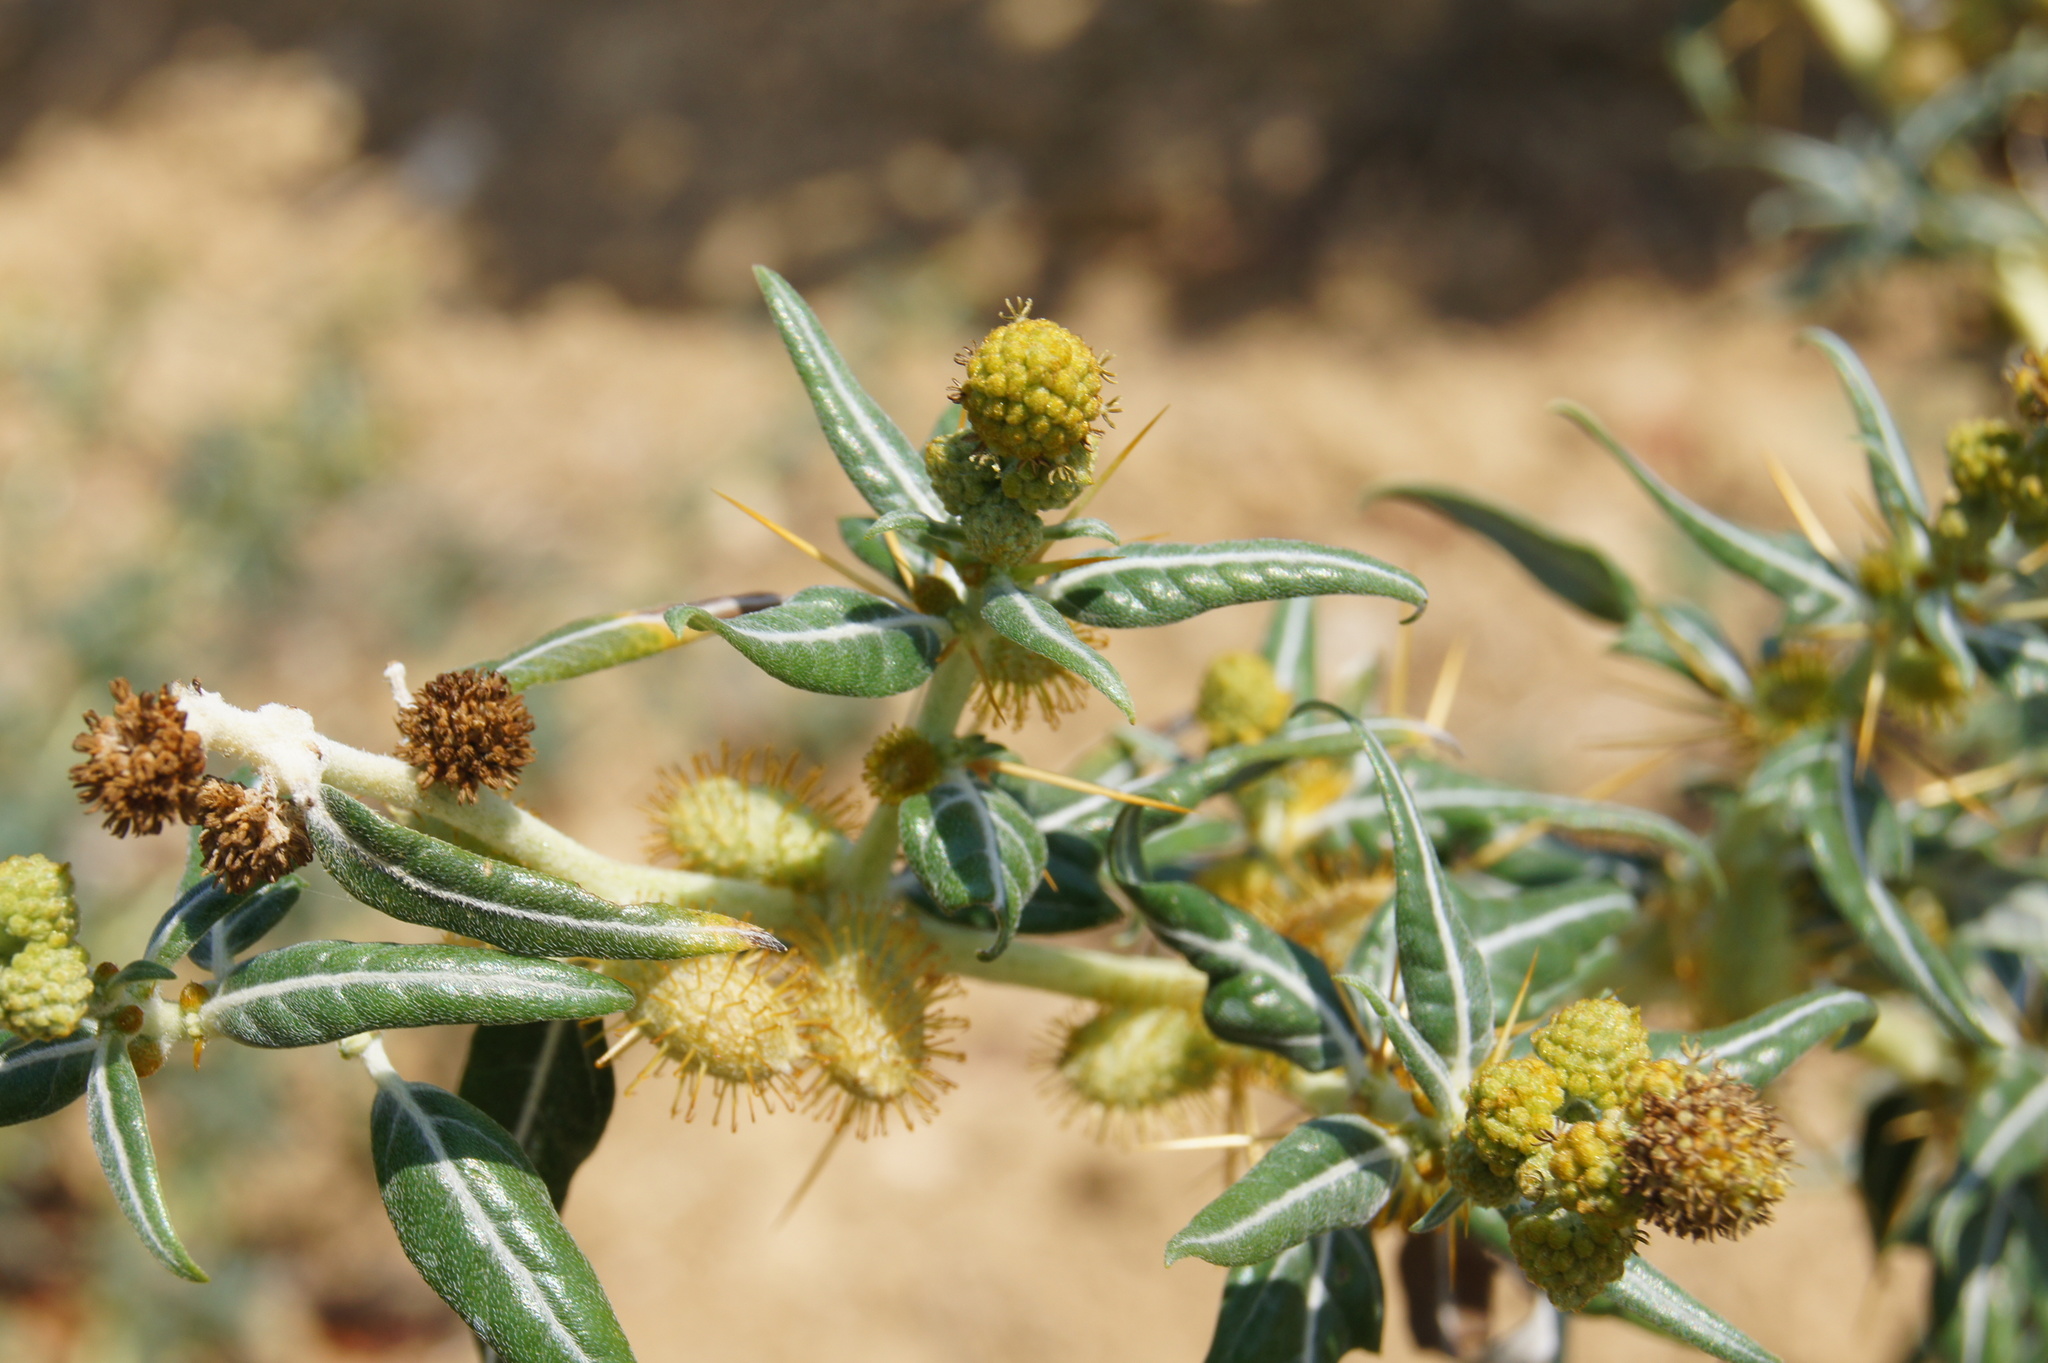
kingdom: Plantae
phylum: Tracheophyta
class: Magnoliopsida
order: Asterales
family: Asteraceae
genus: Xanthium
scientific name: Xanthium spinosum
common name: Spiny cocklebur
